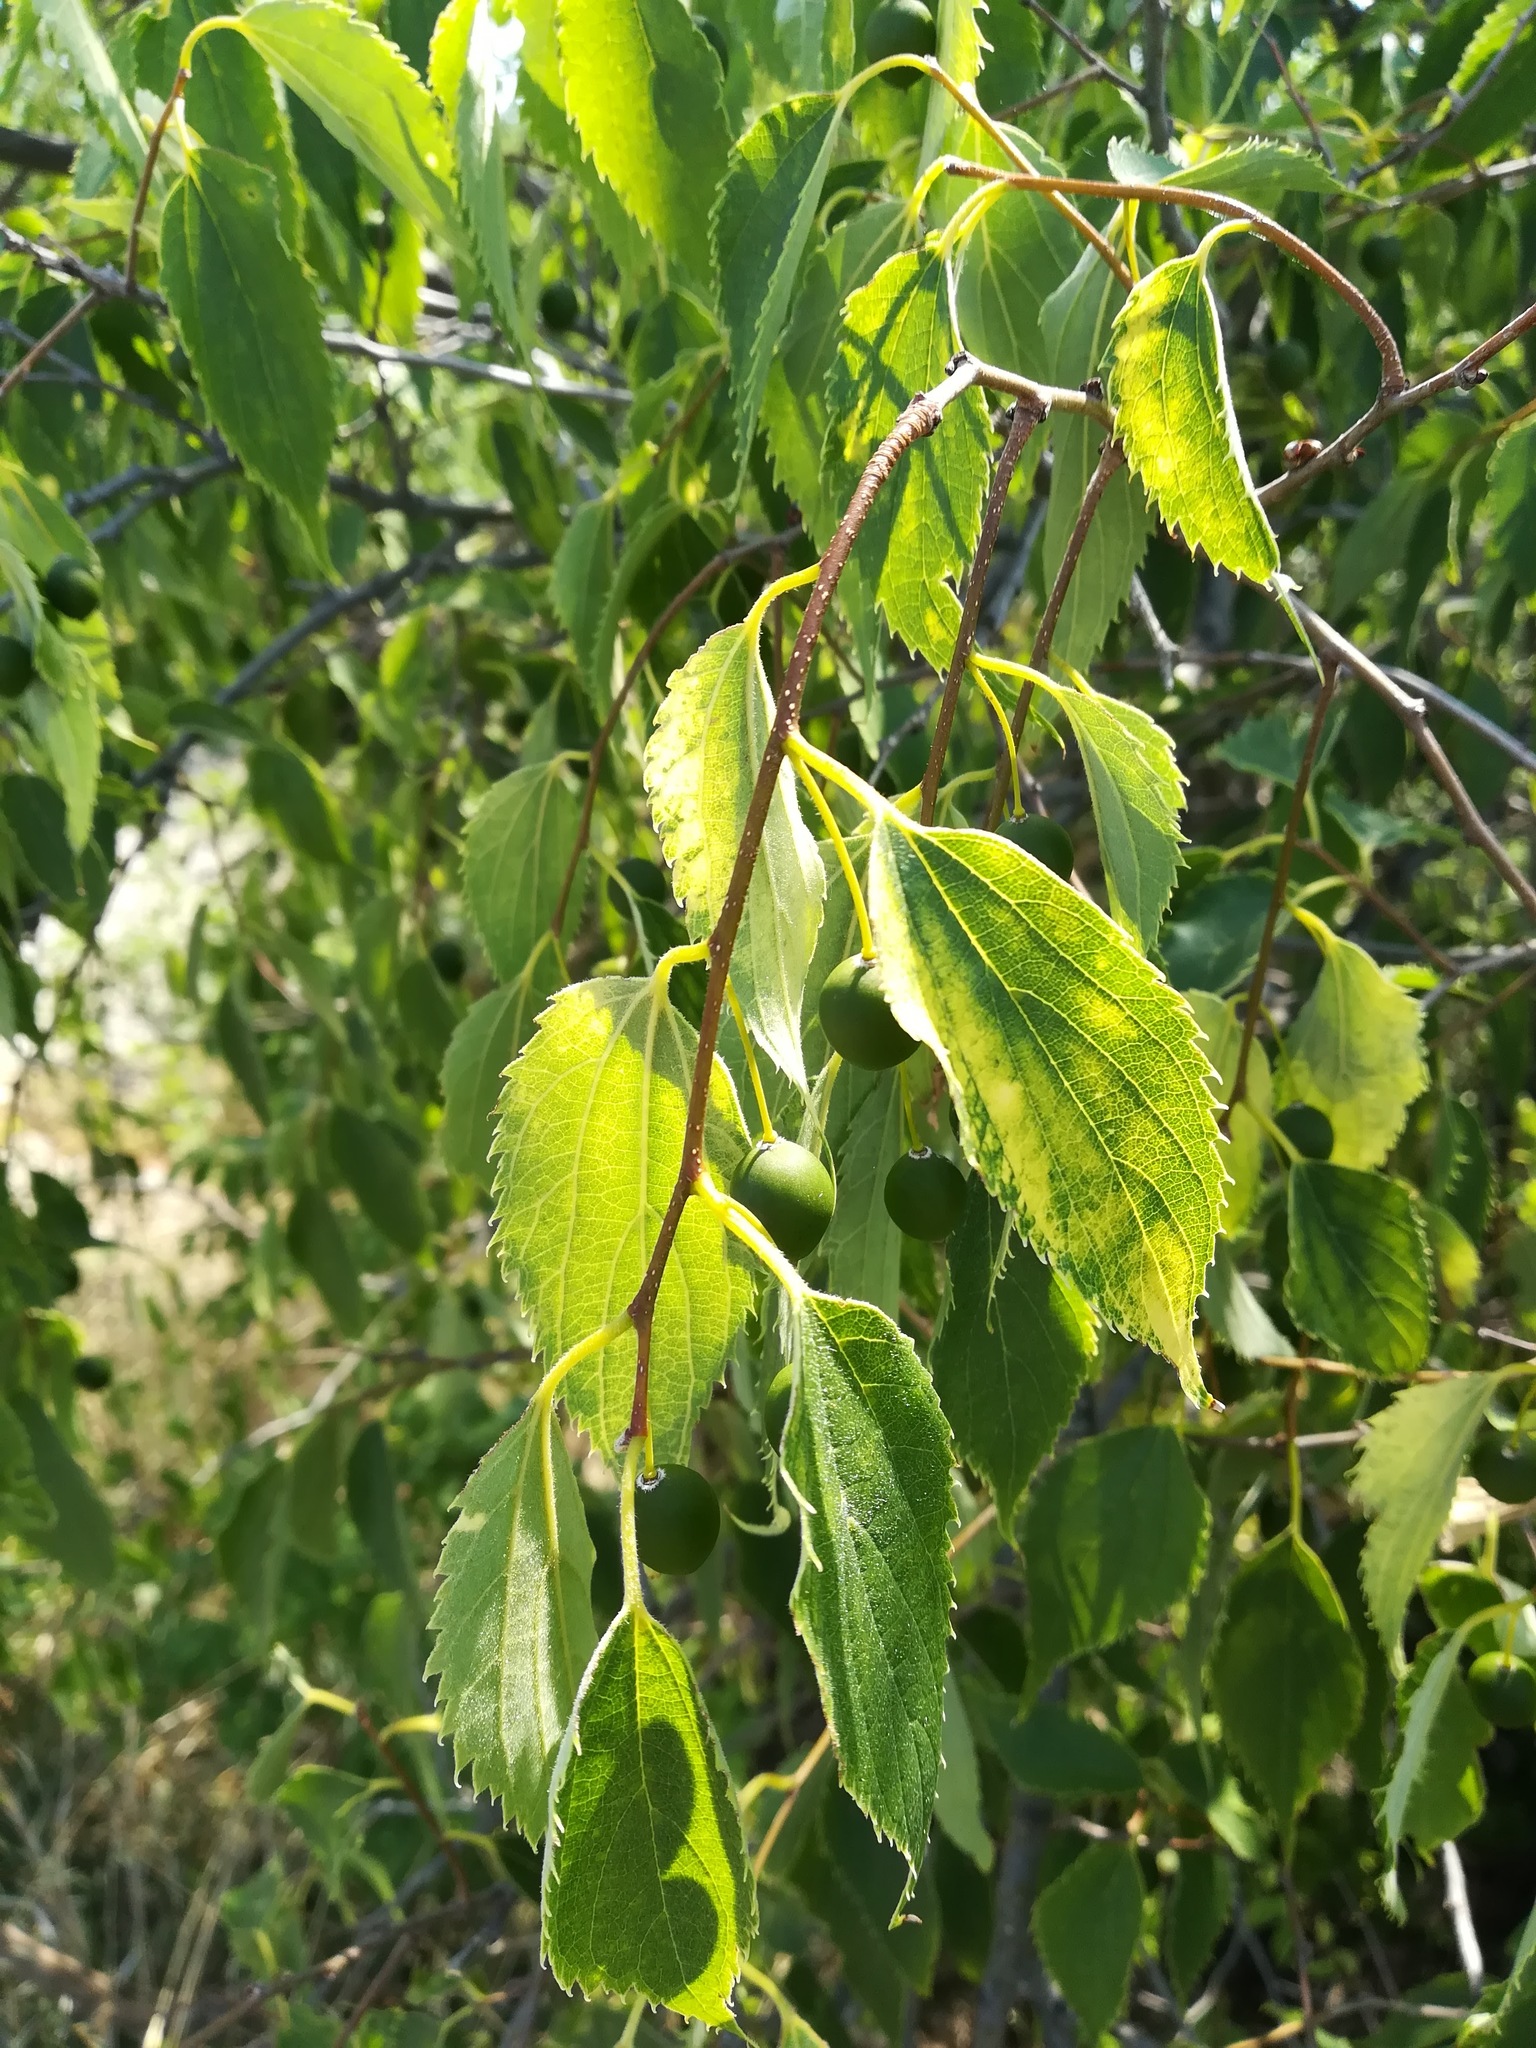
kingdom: Plantae
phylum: Tracheophyta
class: Magnoliopsida
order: Rosales
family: Cannabaceae
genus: Celtis
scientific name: Celtis australis
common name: European hackberry
